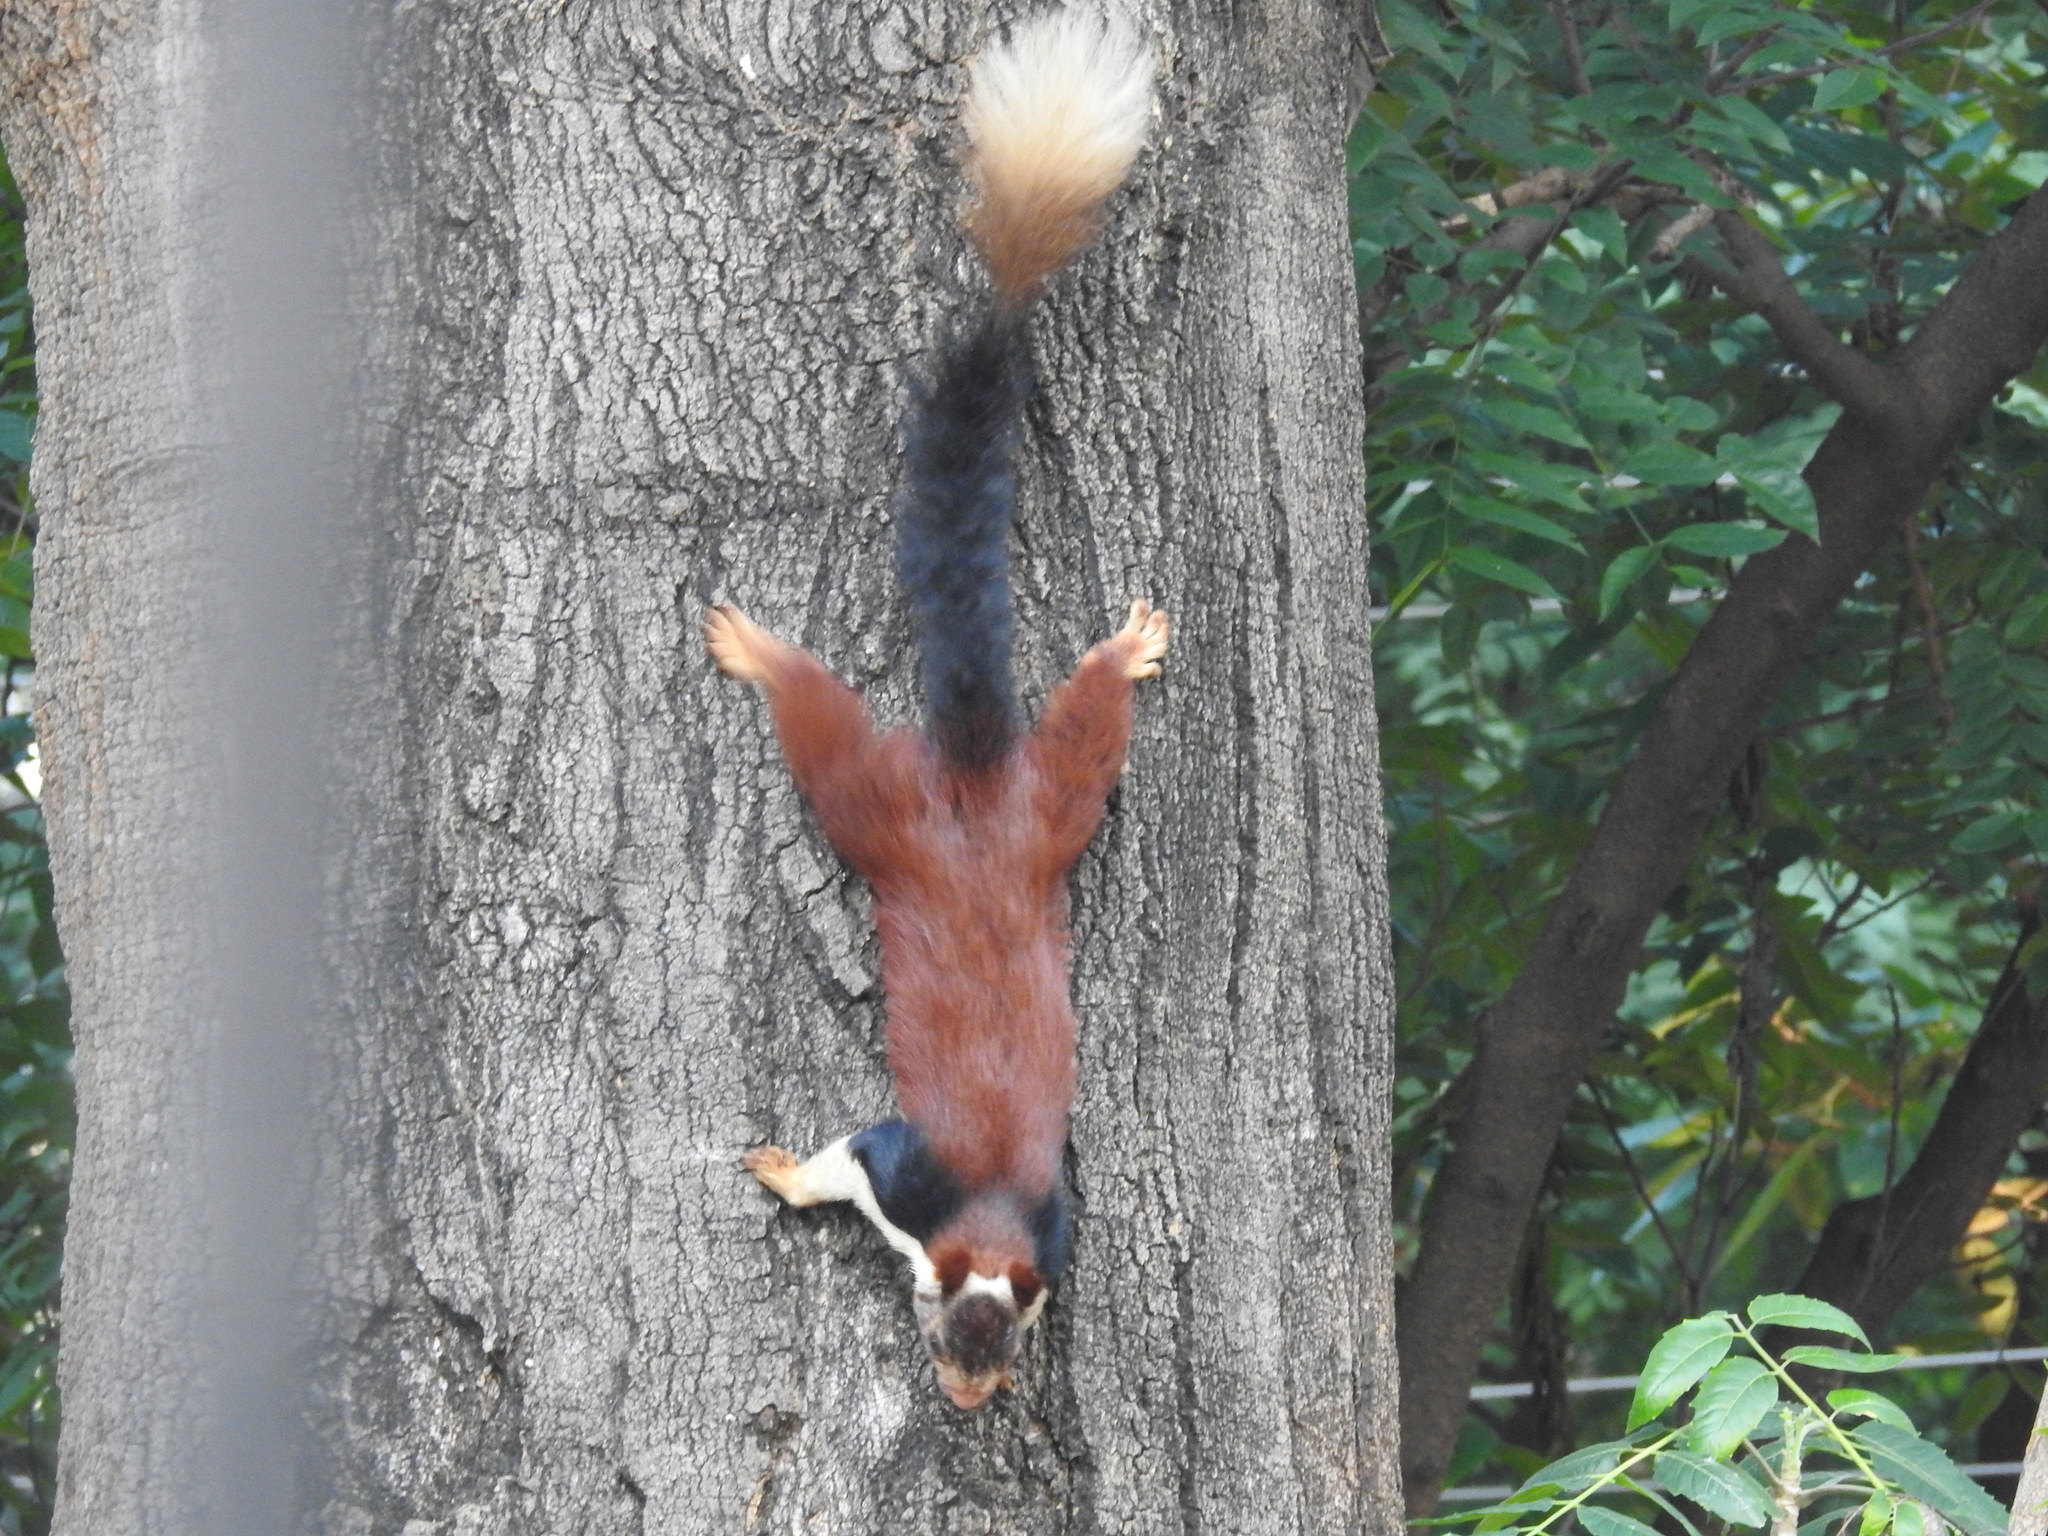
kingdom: Animalia
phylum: Chordata
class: Mammalia
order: Rodentia
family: Sciuridae
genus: Ratufa
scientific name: Ratufa indica
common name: Indian giant squirrel
